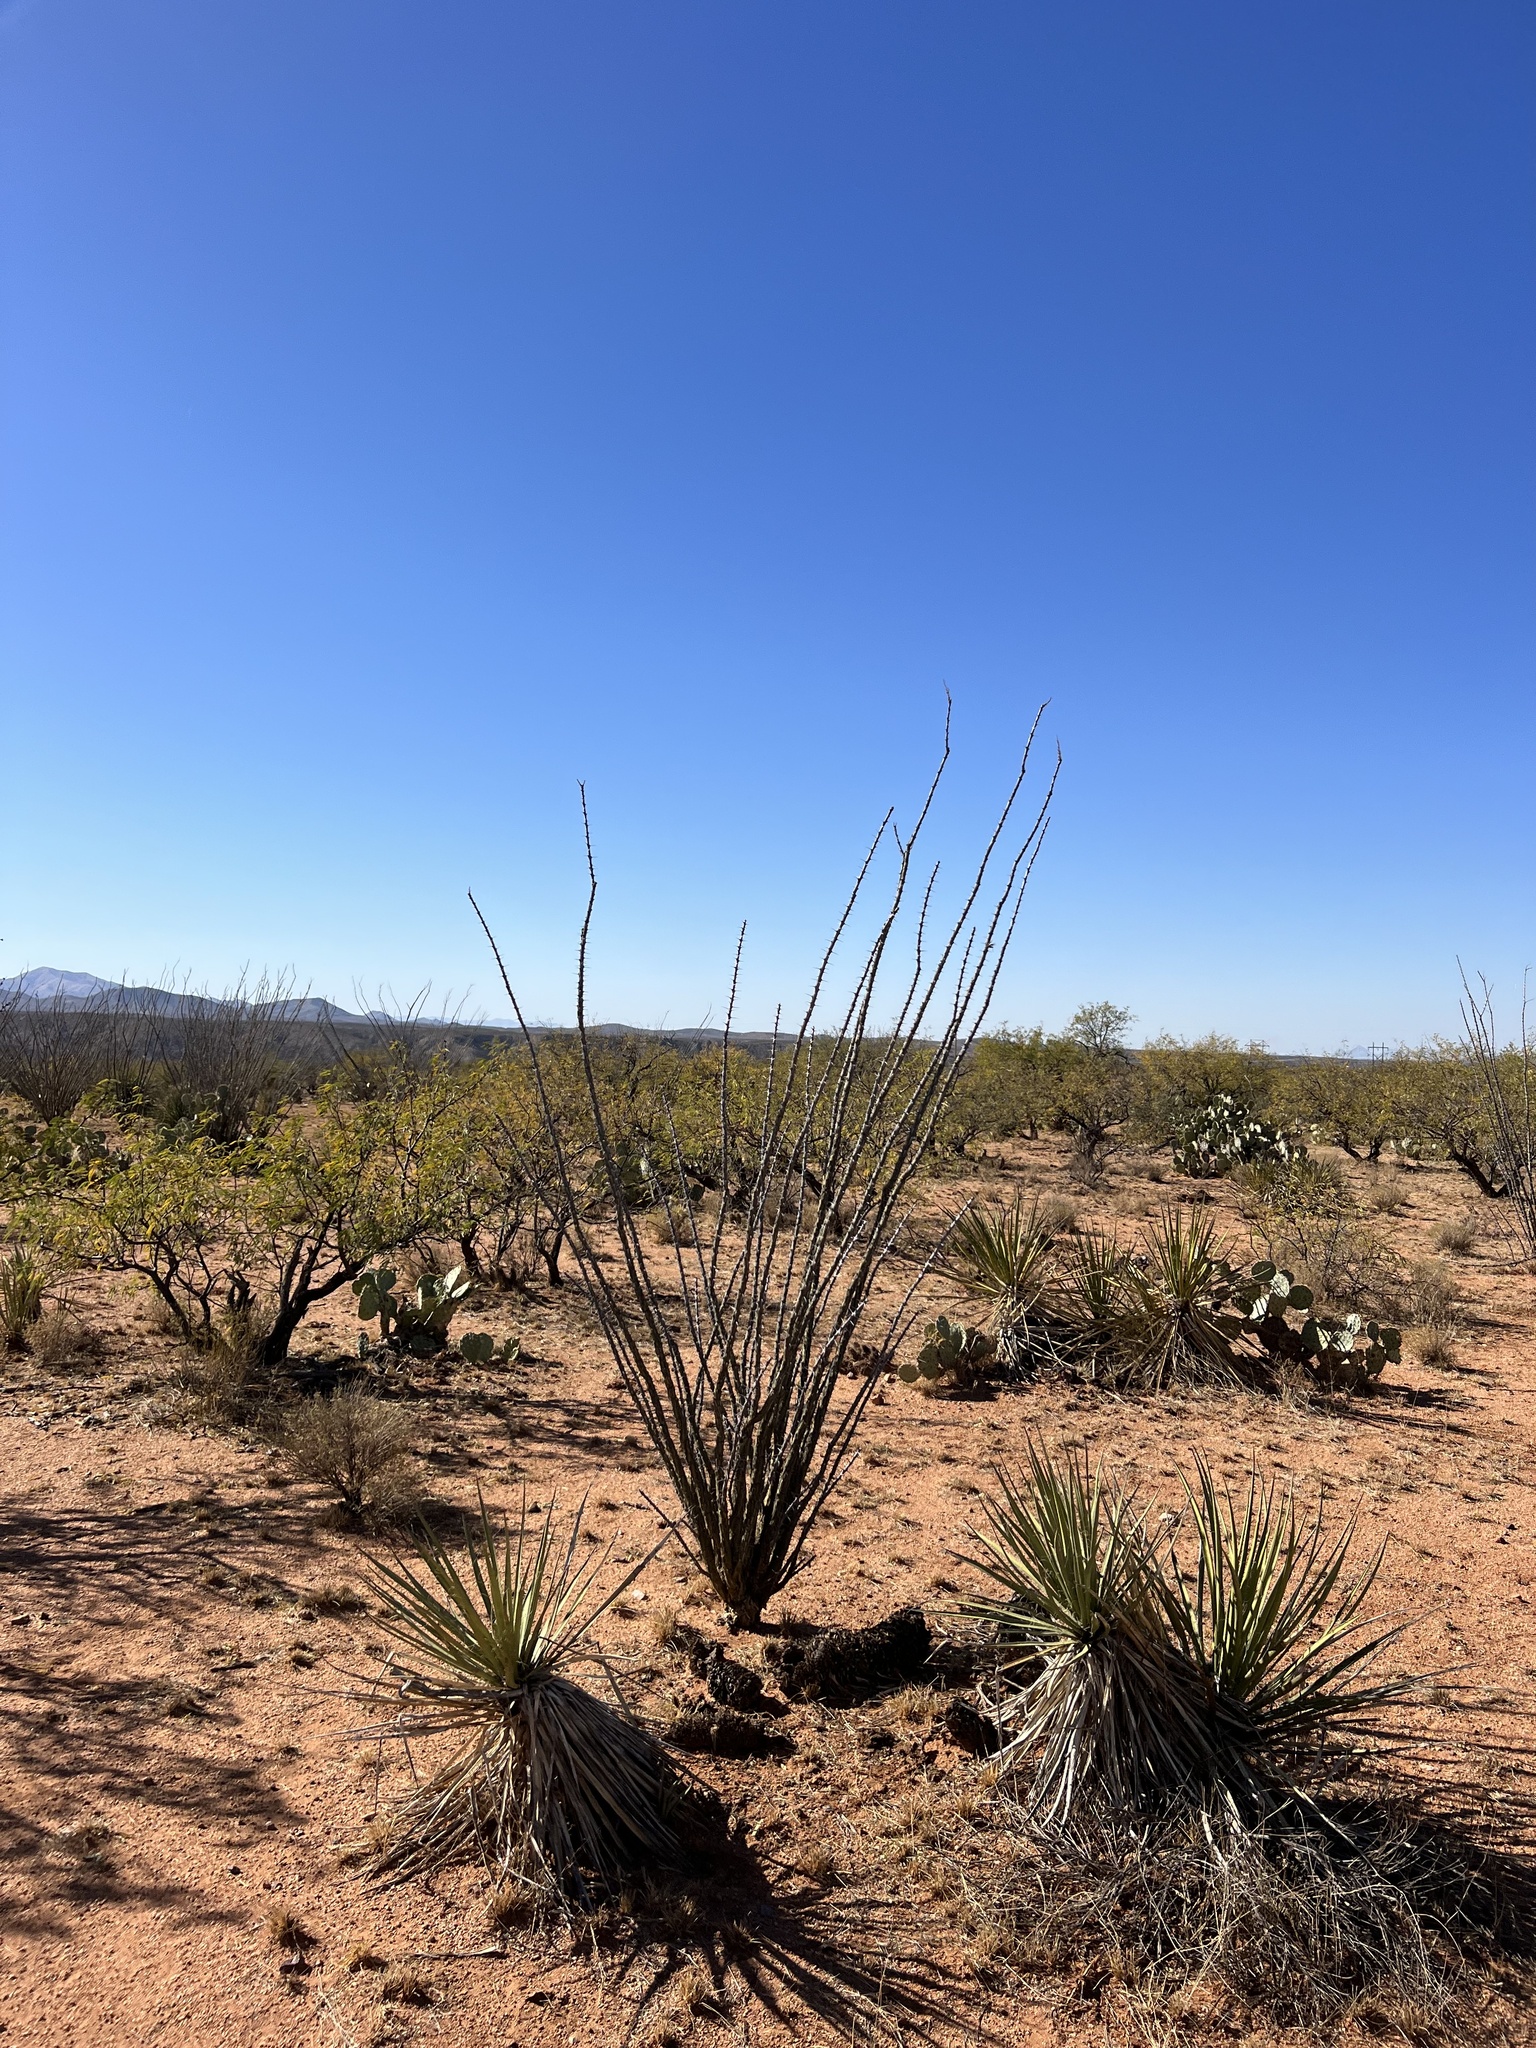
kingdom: Plantae
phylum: Tracheophyta
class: Magnoliopsida
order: Ericales
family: Fouquieriaceae
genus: Fouquieria
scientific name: Fouquieria splendens
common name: Vine-cactus
